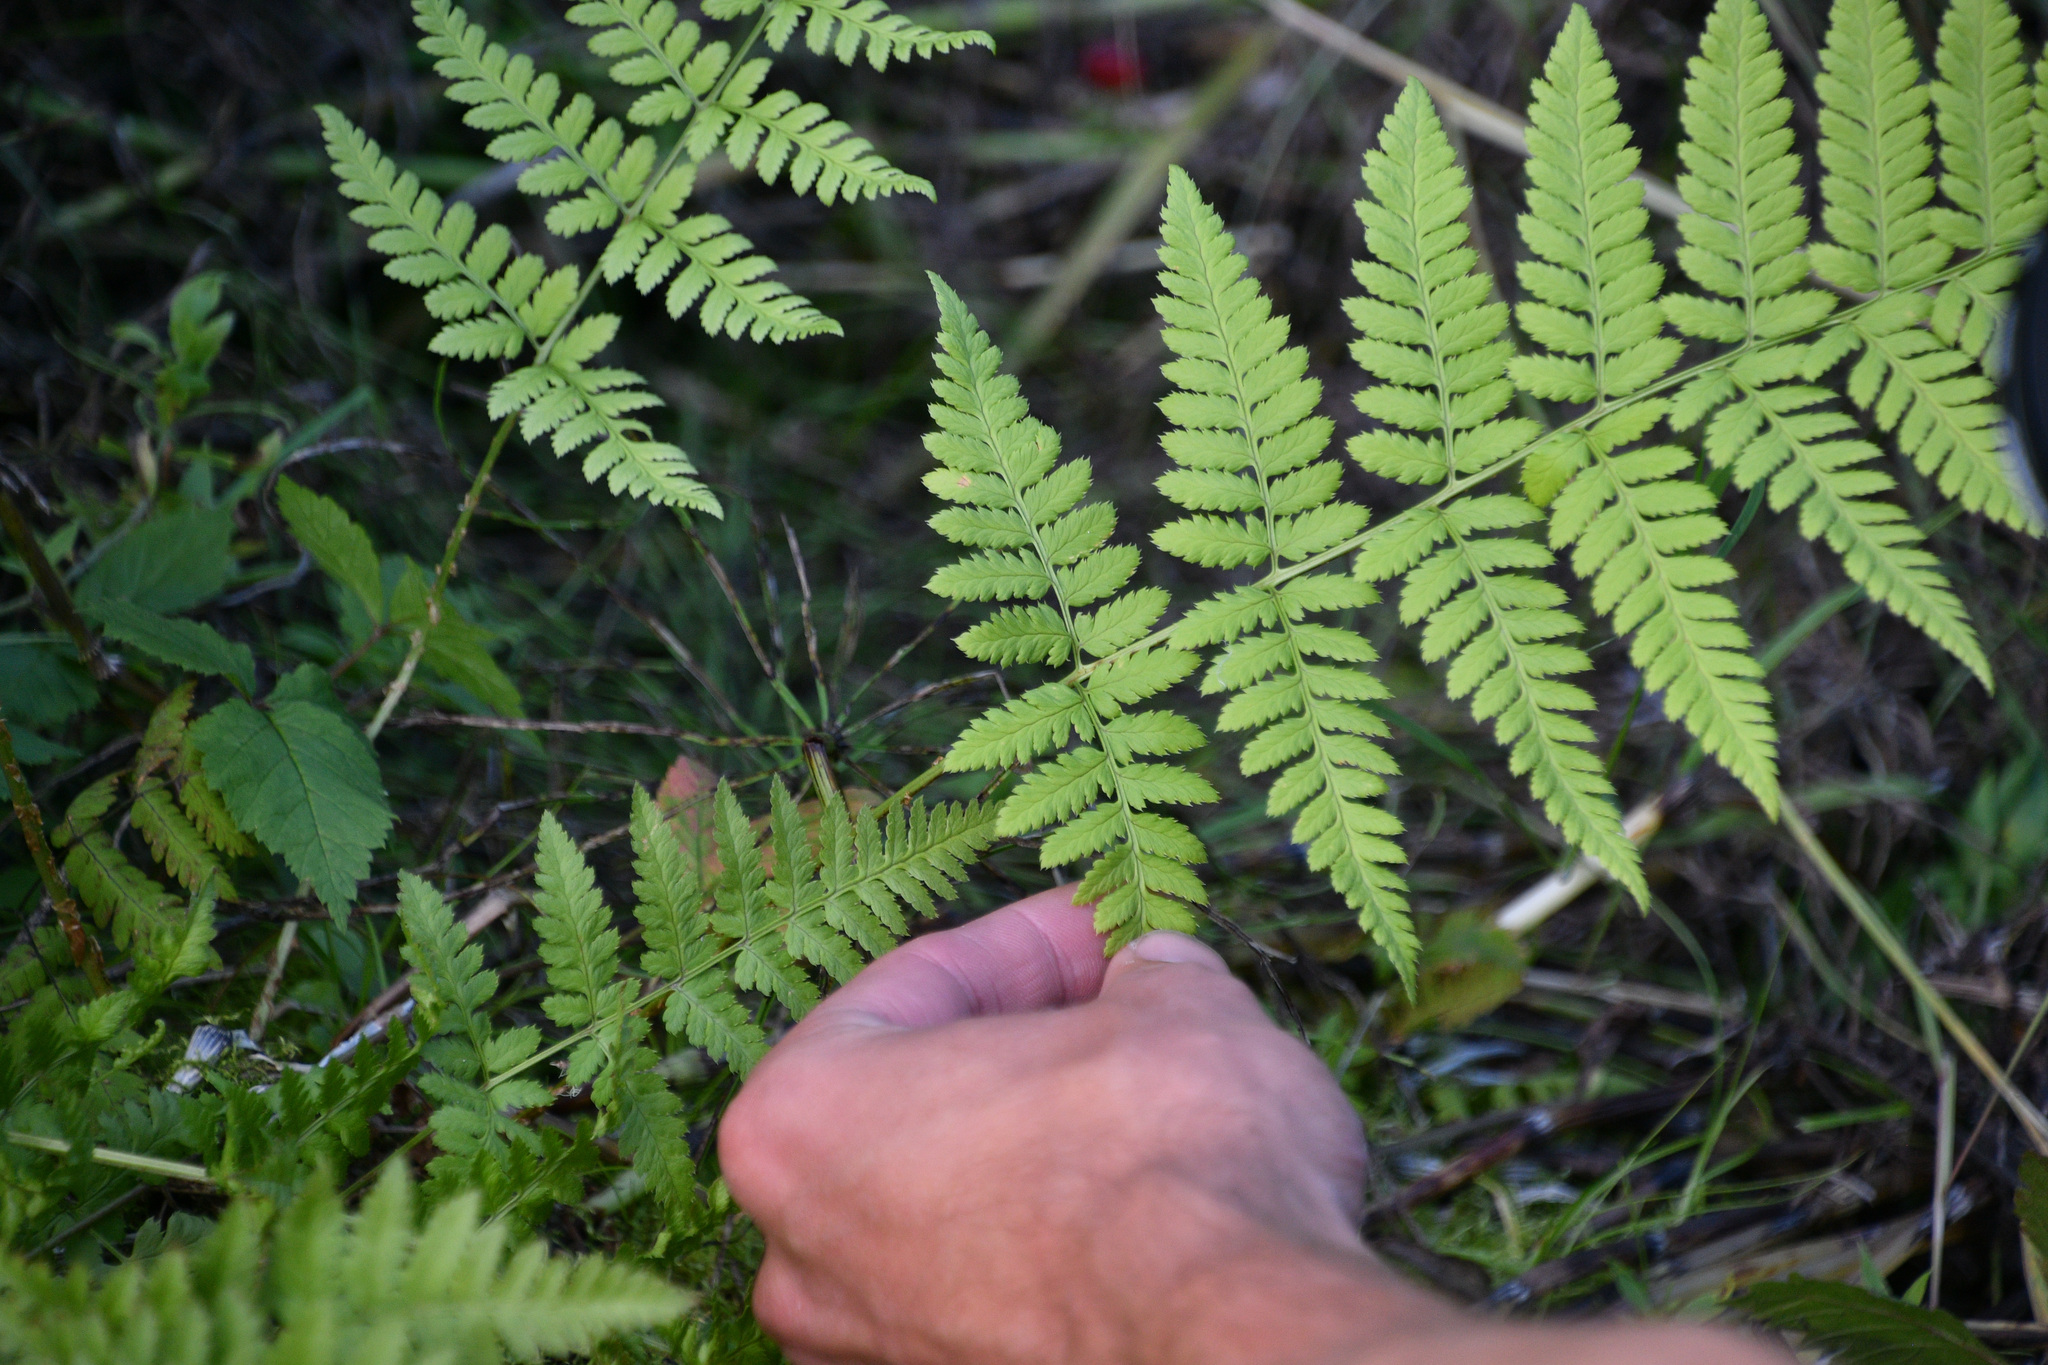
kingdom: Plantae
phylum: Tracheophyta
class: Polypodiopsida
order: Polypodiales
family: Dryopteridaceae
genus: Dryopteris
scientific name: Dryopteris carthusiana
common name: Narrow buckler-fern
